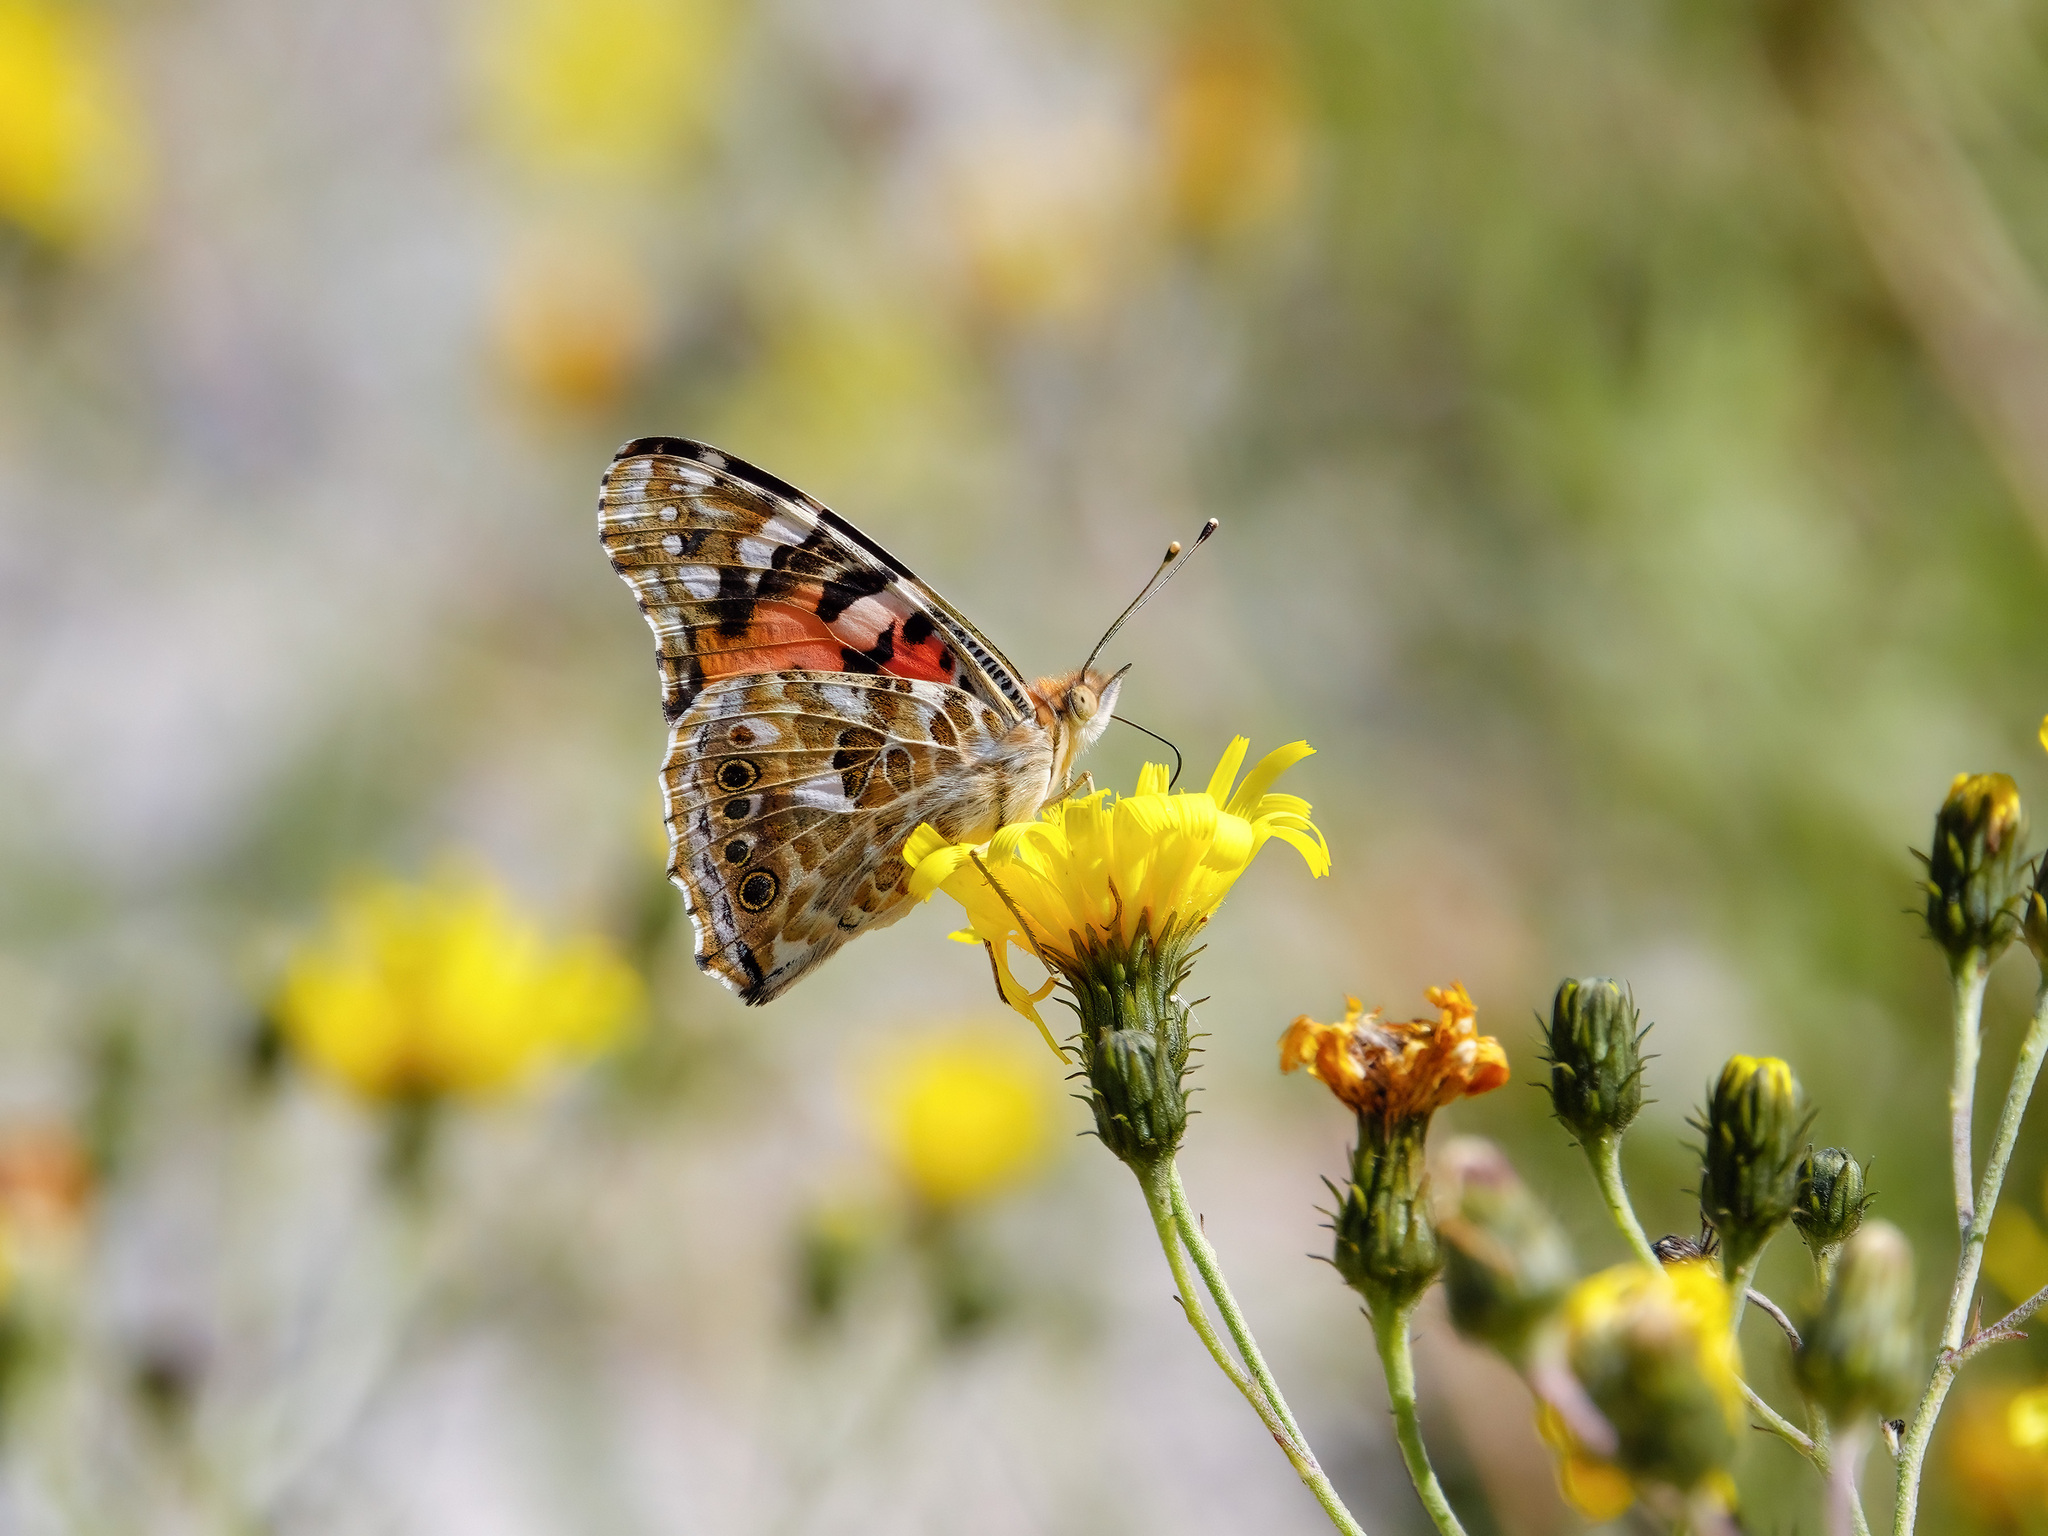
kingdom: Animalia
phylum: Arthropoda
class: Insecta
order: Lepidoptera
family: Nymphalidae
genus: Vanessa
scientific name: Vanessa cardui
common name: Painted lady
